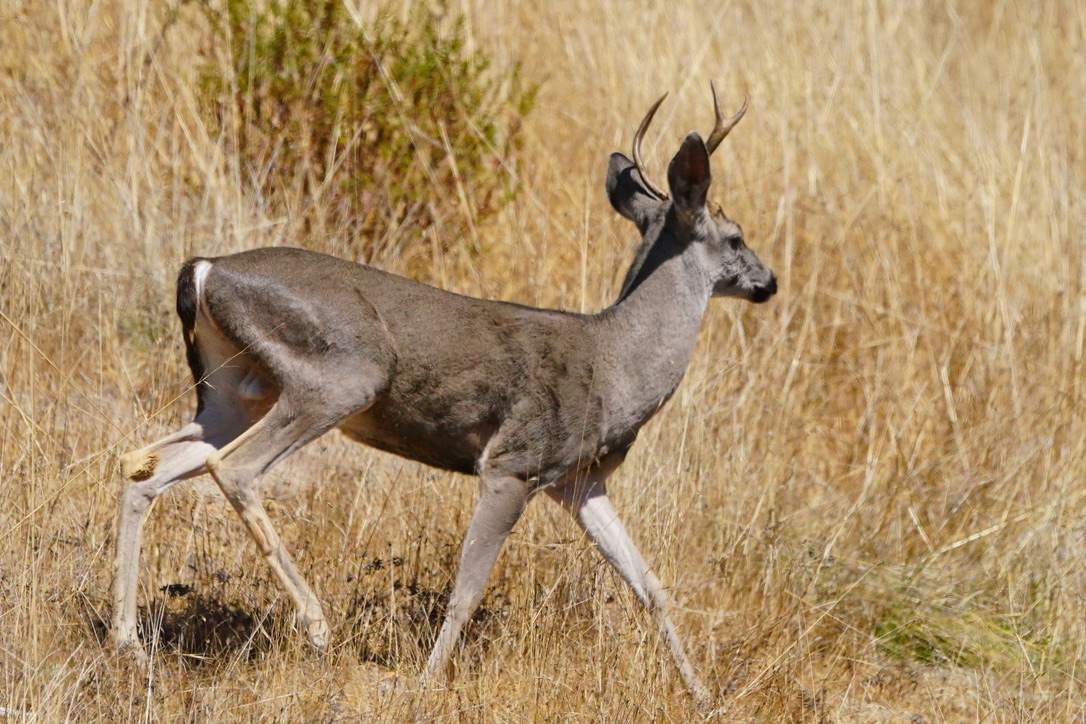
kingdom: Animalia
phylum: Chordata
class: Mammalia
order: Artiodactyla
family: Cervidae
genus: Odocoileus
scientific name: Odocoileus hemionus
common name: Mule deer
